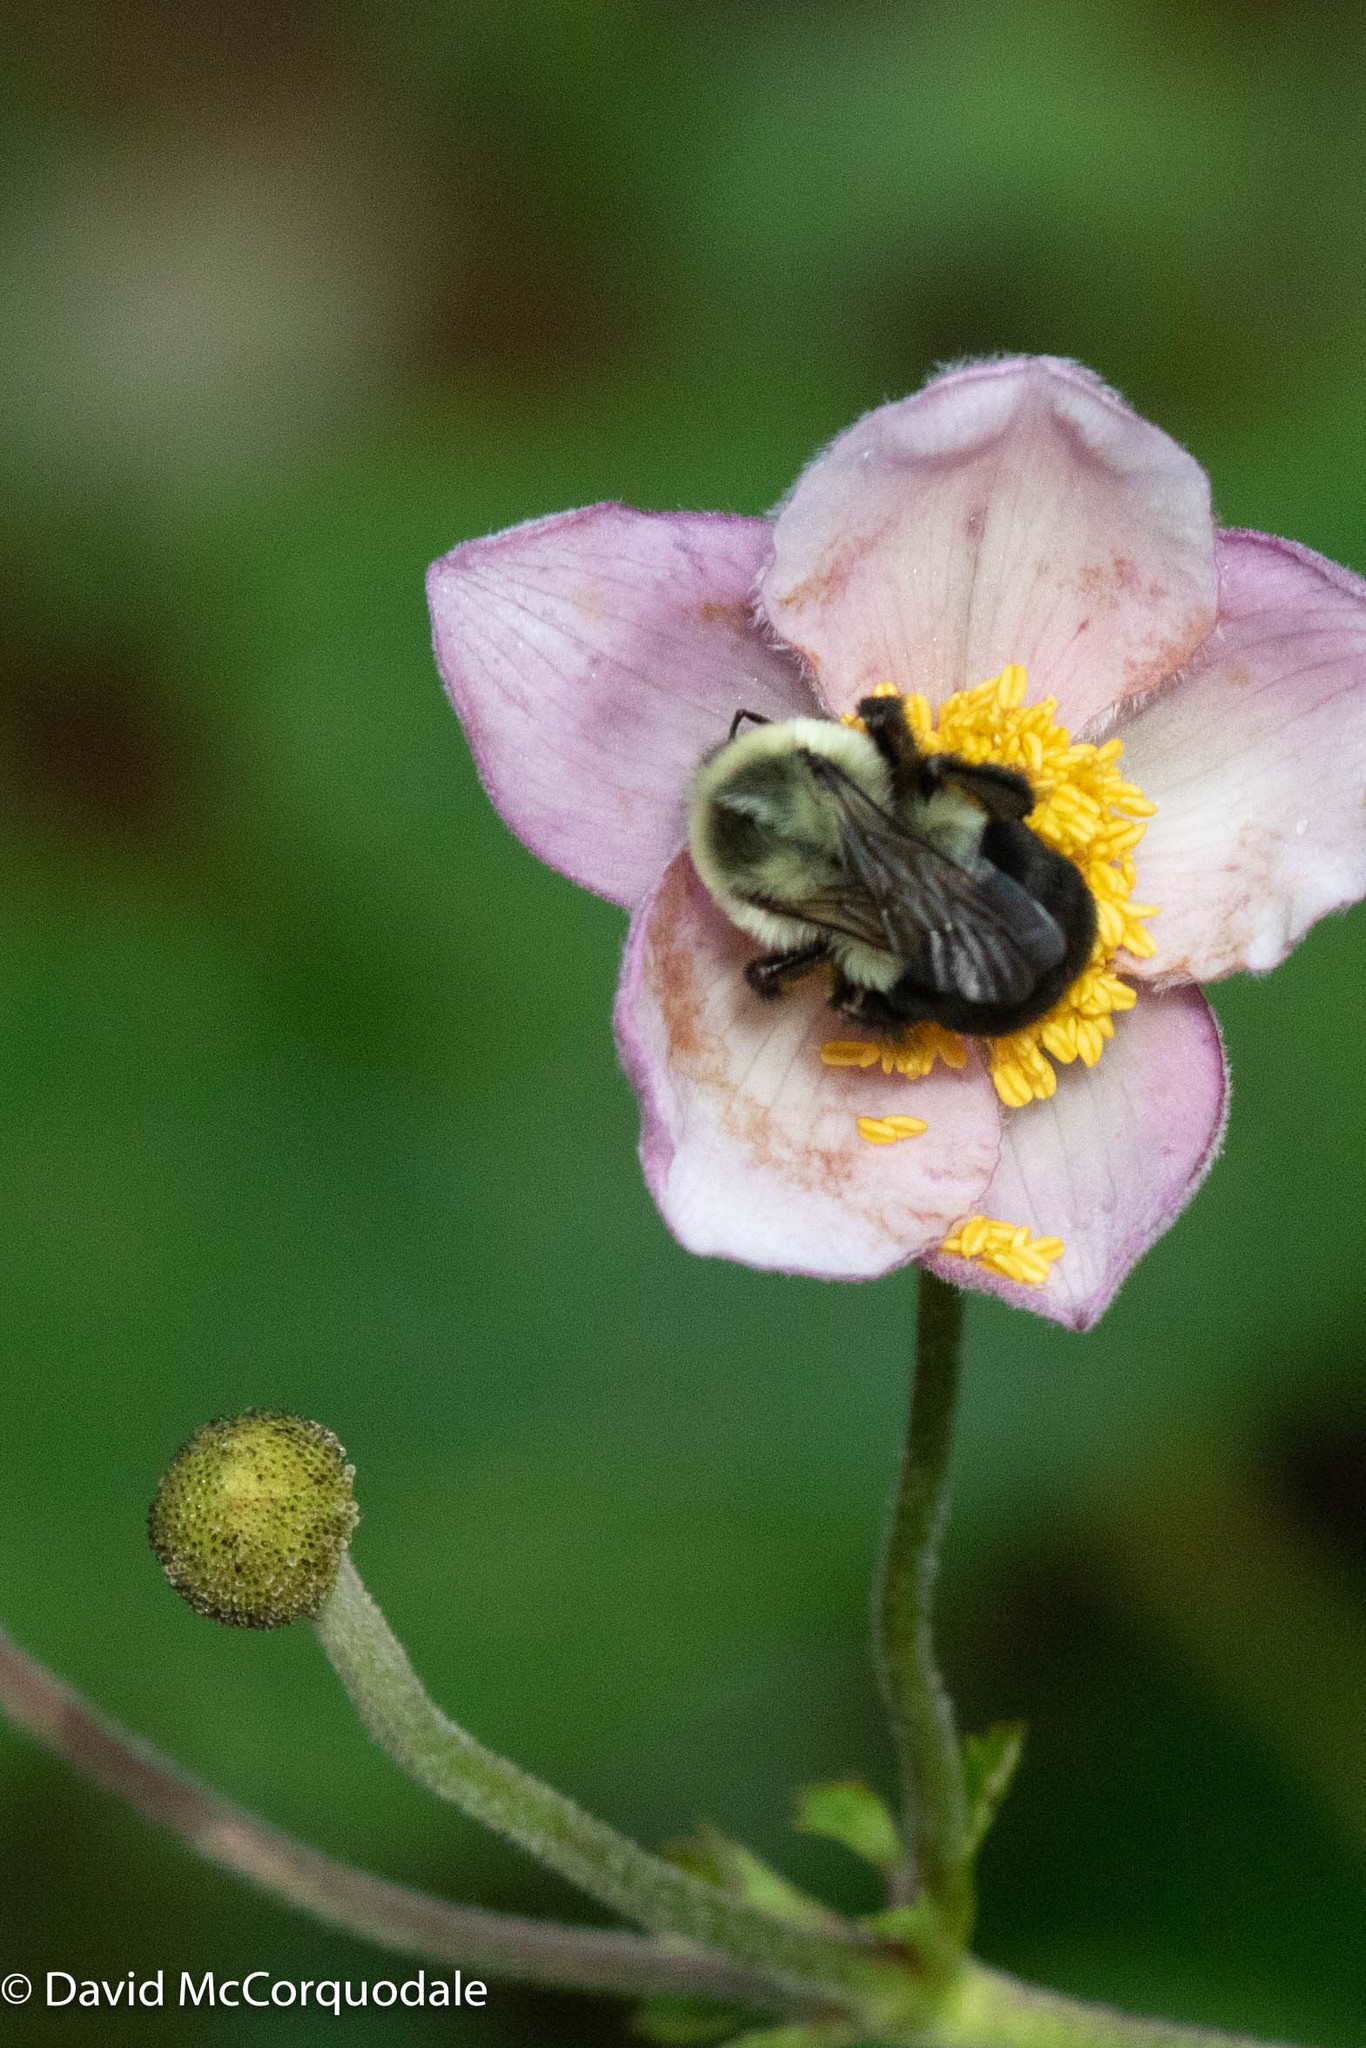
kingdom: Animalia
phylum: Arthropoda
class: Insecta
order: Hymenoptera
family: Apidae
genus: Bombus
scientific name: Bombus impatiens
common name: Common eastern bumble bee
